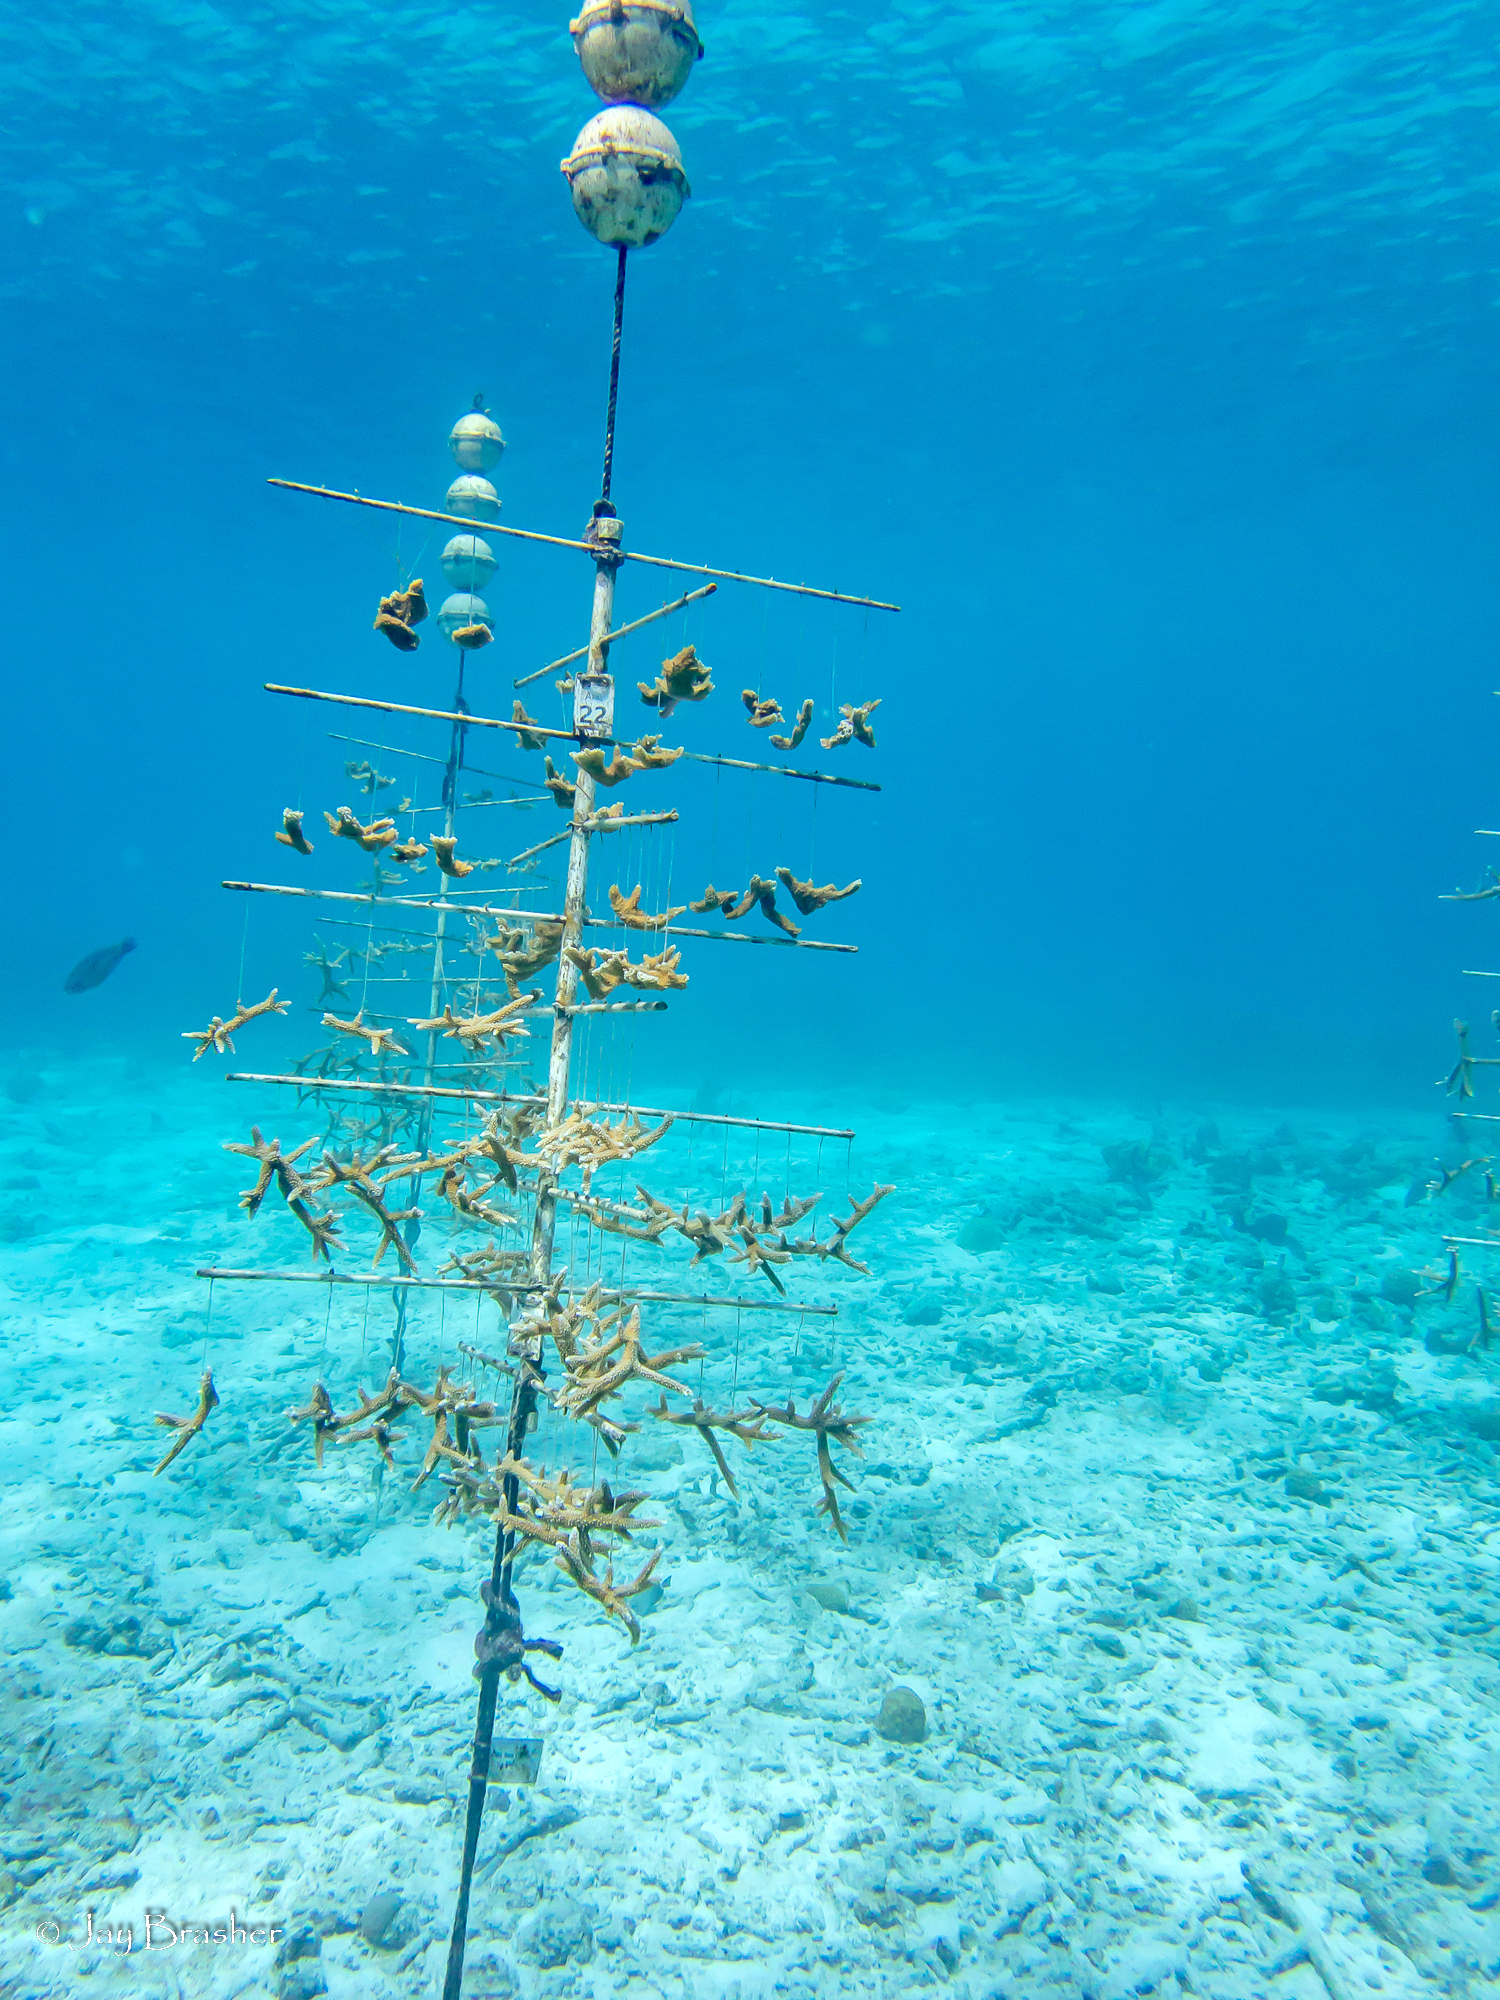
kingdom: Animalia
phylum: Cnidaria
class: Anthozoa
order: Scleractinia
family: Acroporidae
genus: Acropora
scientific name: Acropora palmata
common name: Elkhorn coral
